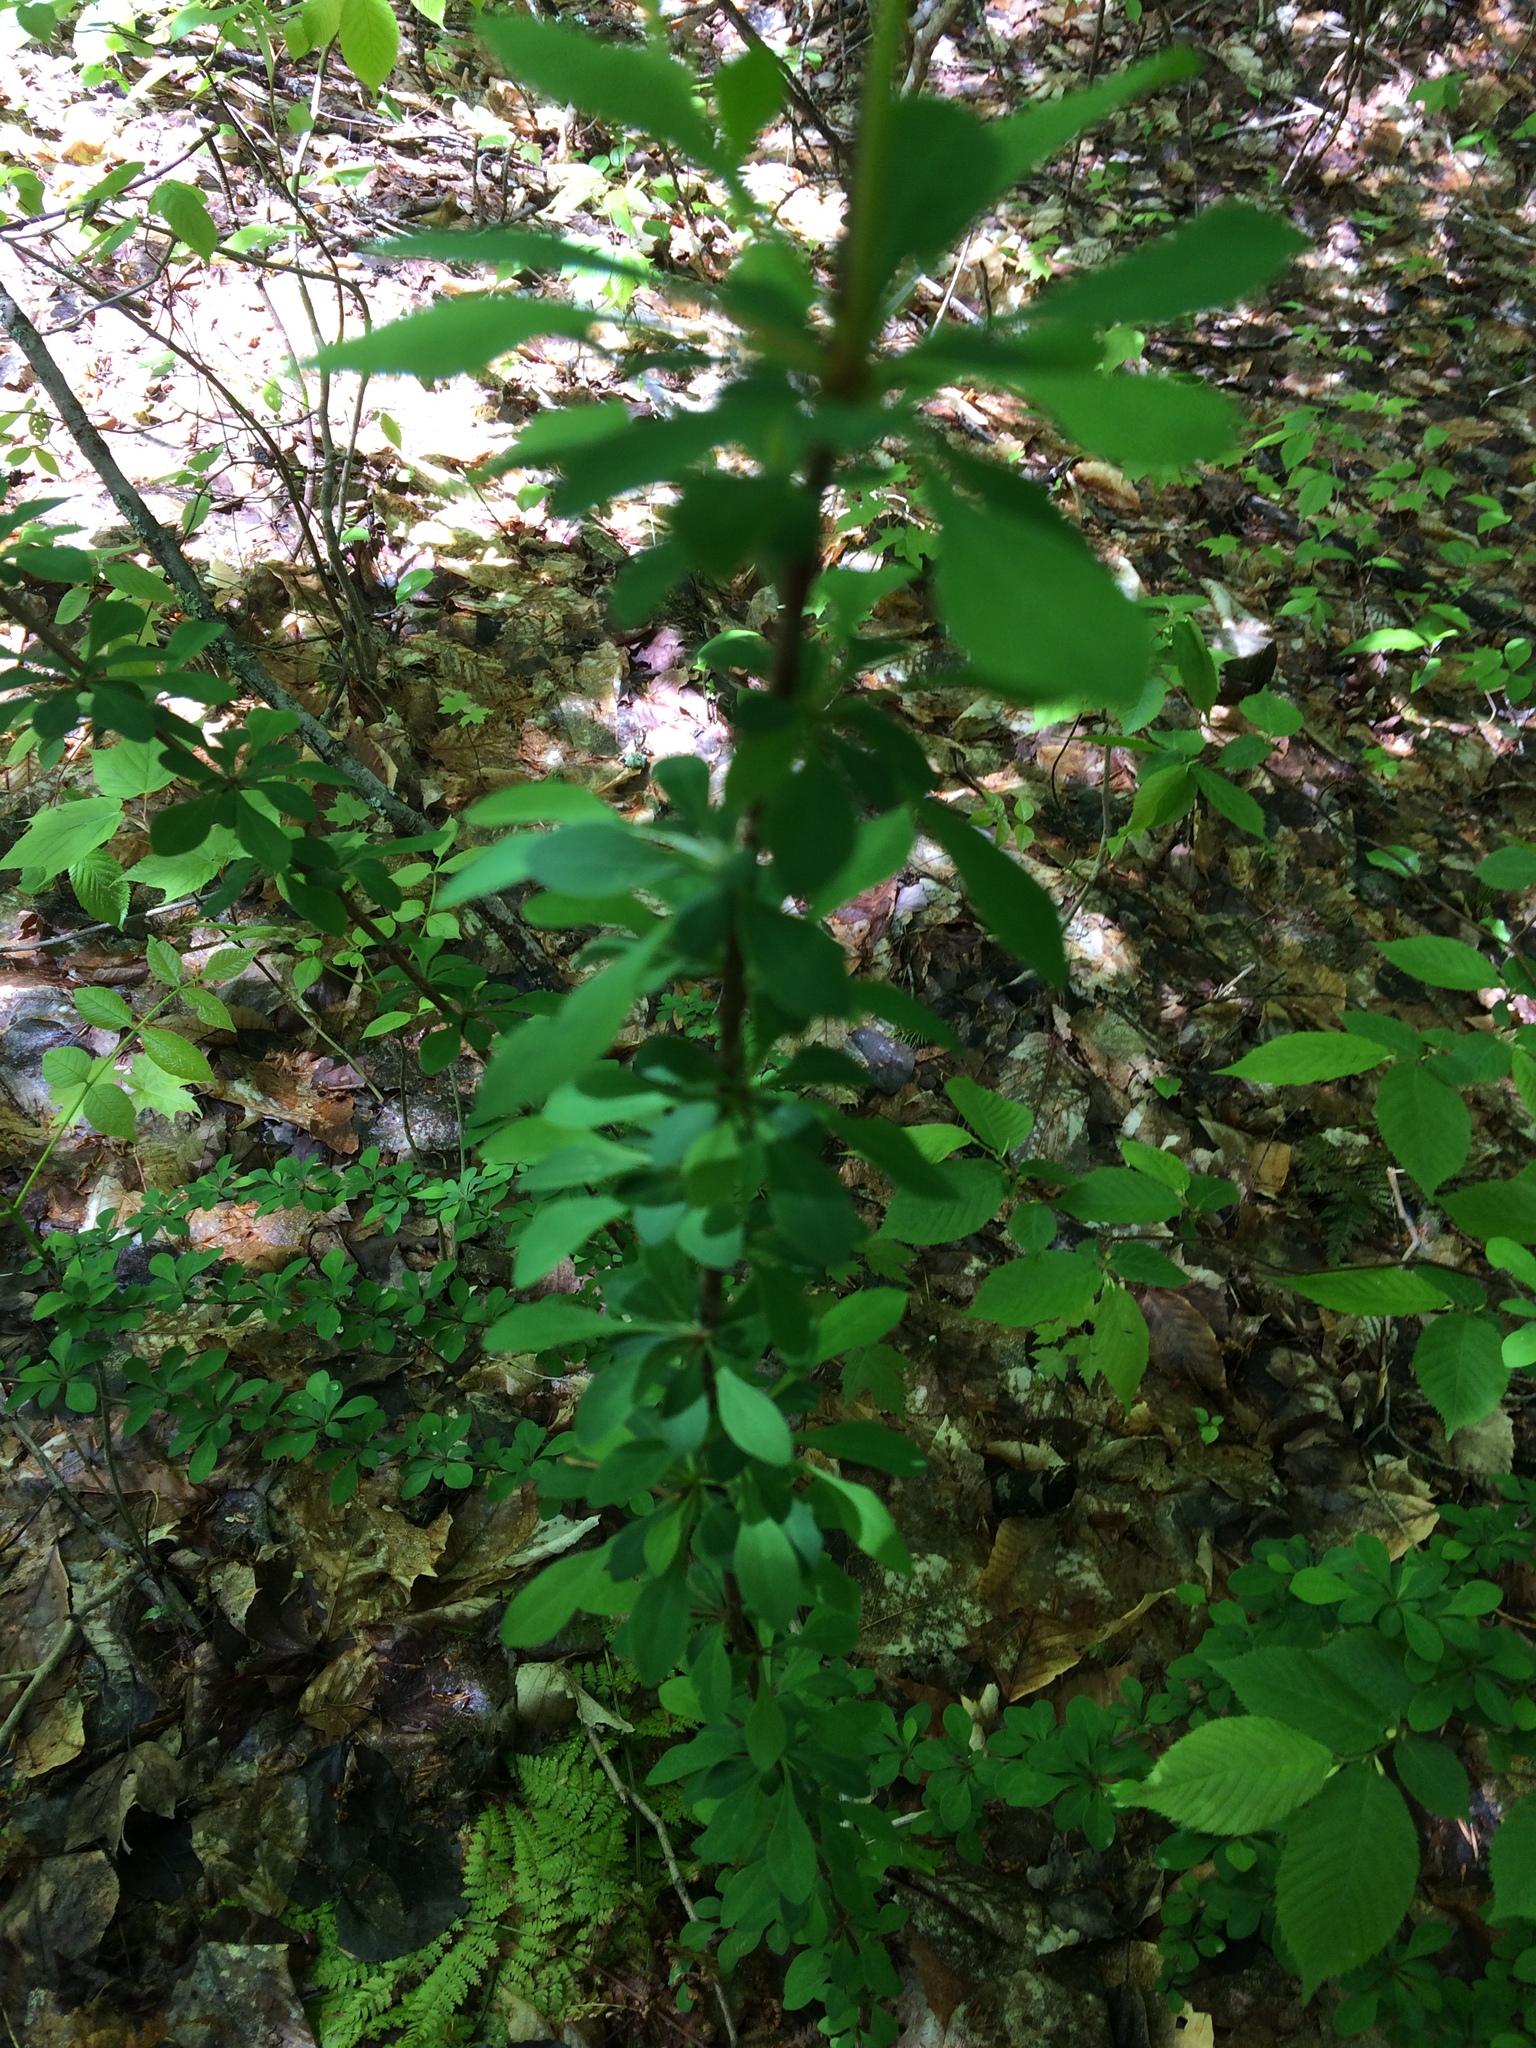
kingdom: Plantae
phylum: Tracheophyta
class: Magnoliopsida
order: Ranunculales
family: Berberidaceae
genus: Berberis
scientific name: Berberis thunbergii
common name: Japanese barberry
